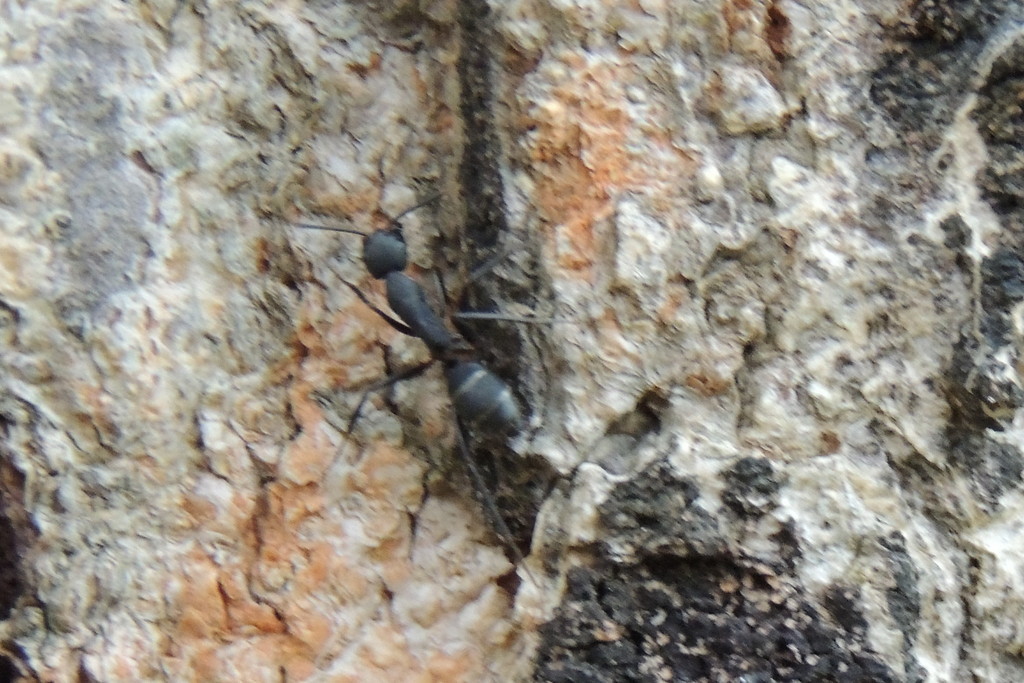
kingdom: Animalia
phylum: Arthropoda
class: Insecta
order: Hymenoptera
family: Formicidae
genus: Camponotus
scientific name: Camponotus compressus
